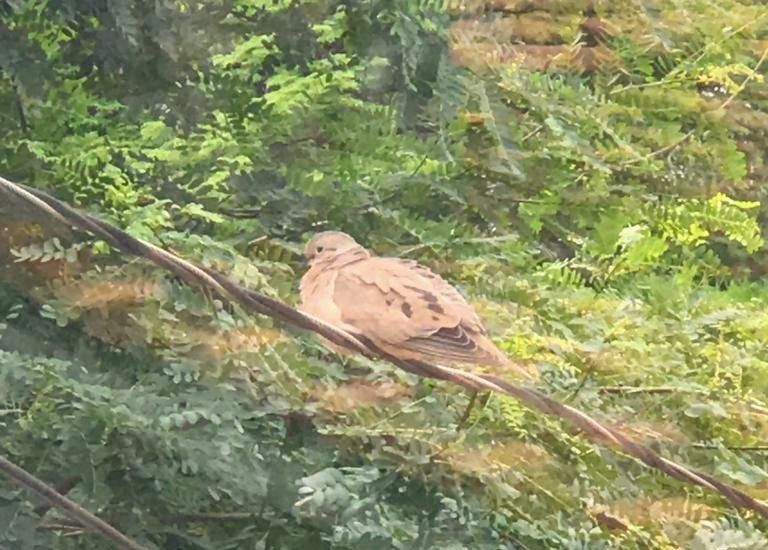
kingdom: Animalia
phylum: Chordata
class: Aves
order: Columbiformes
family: Columbidae
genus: Zenaida
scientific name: Zenaida auriculata
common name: Eared dove
